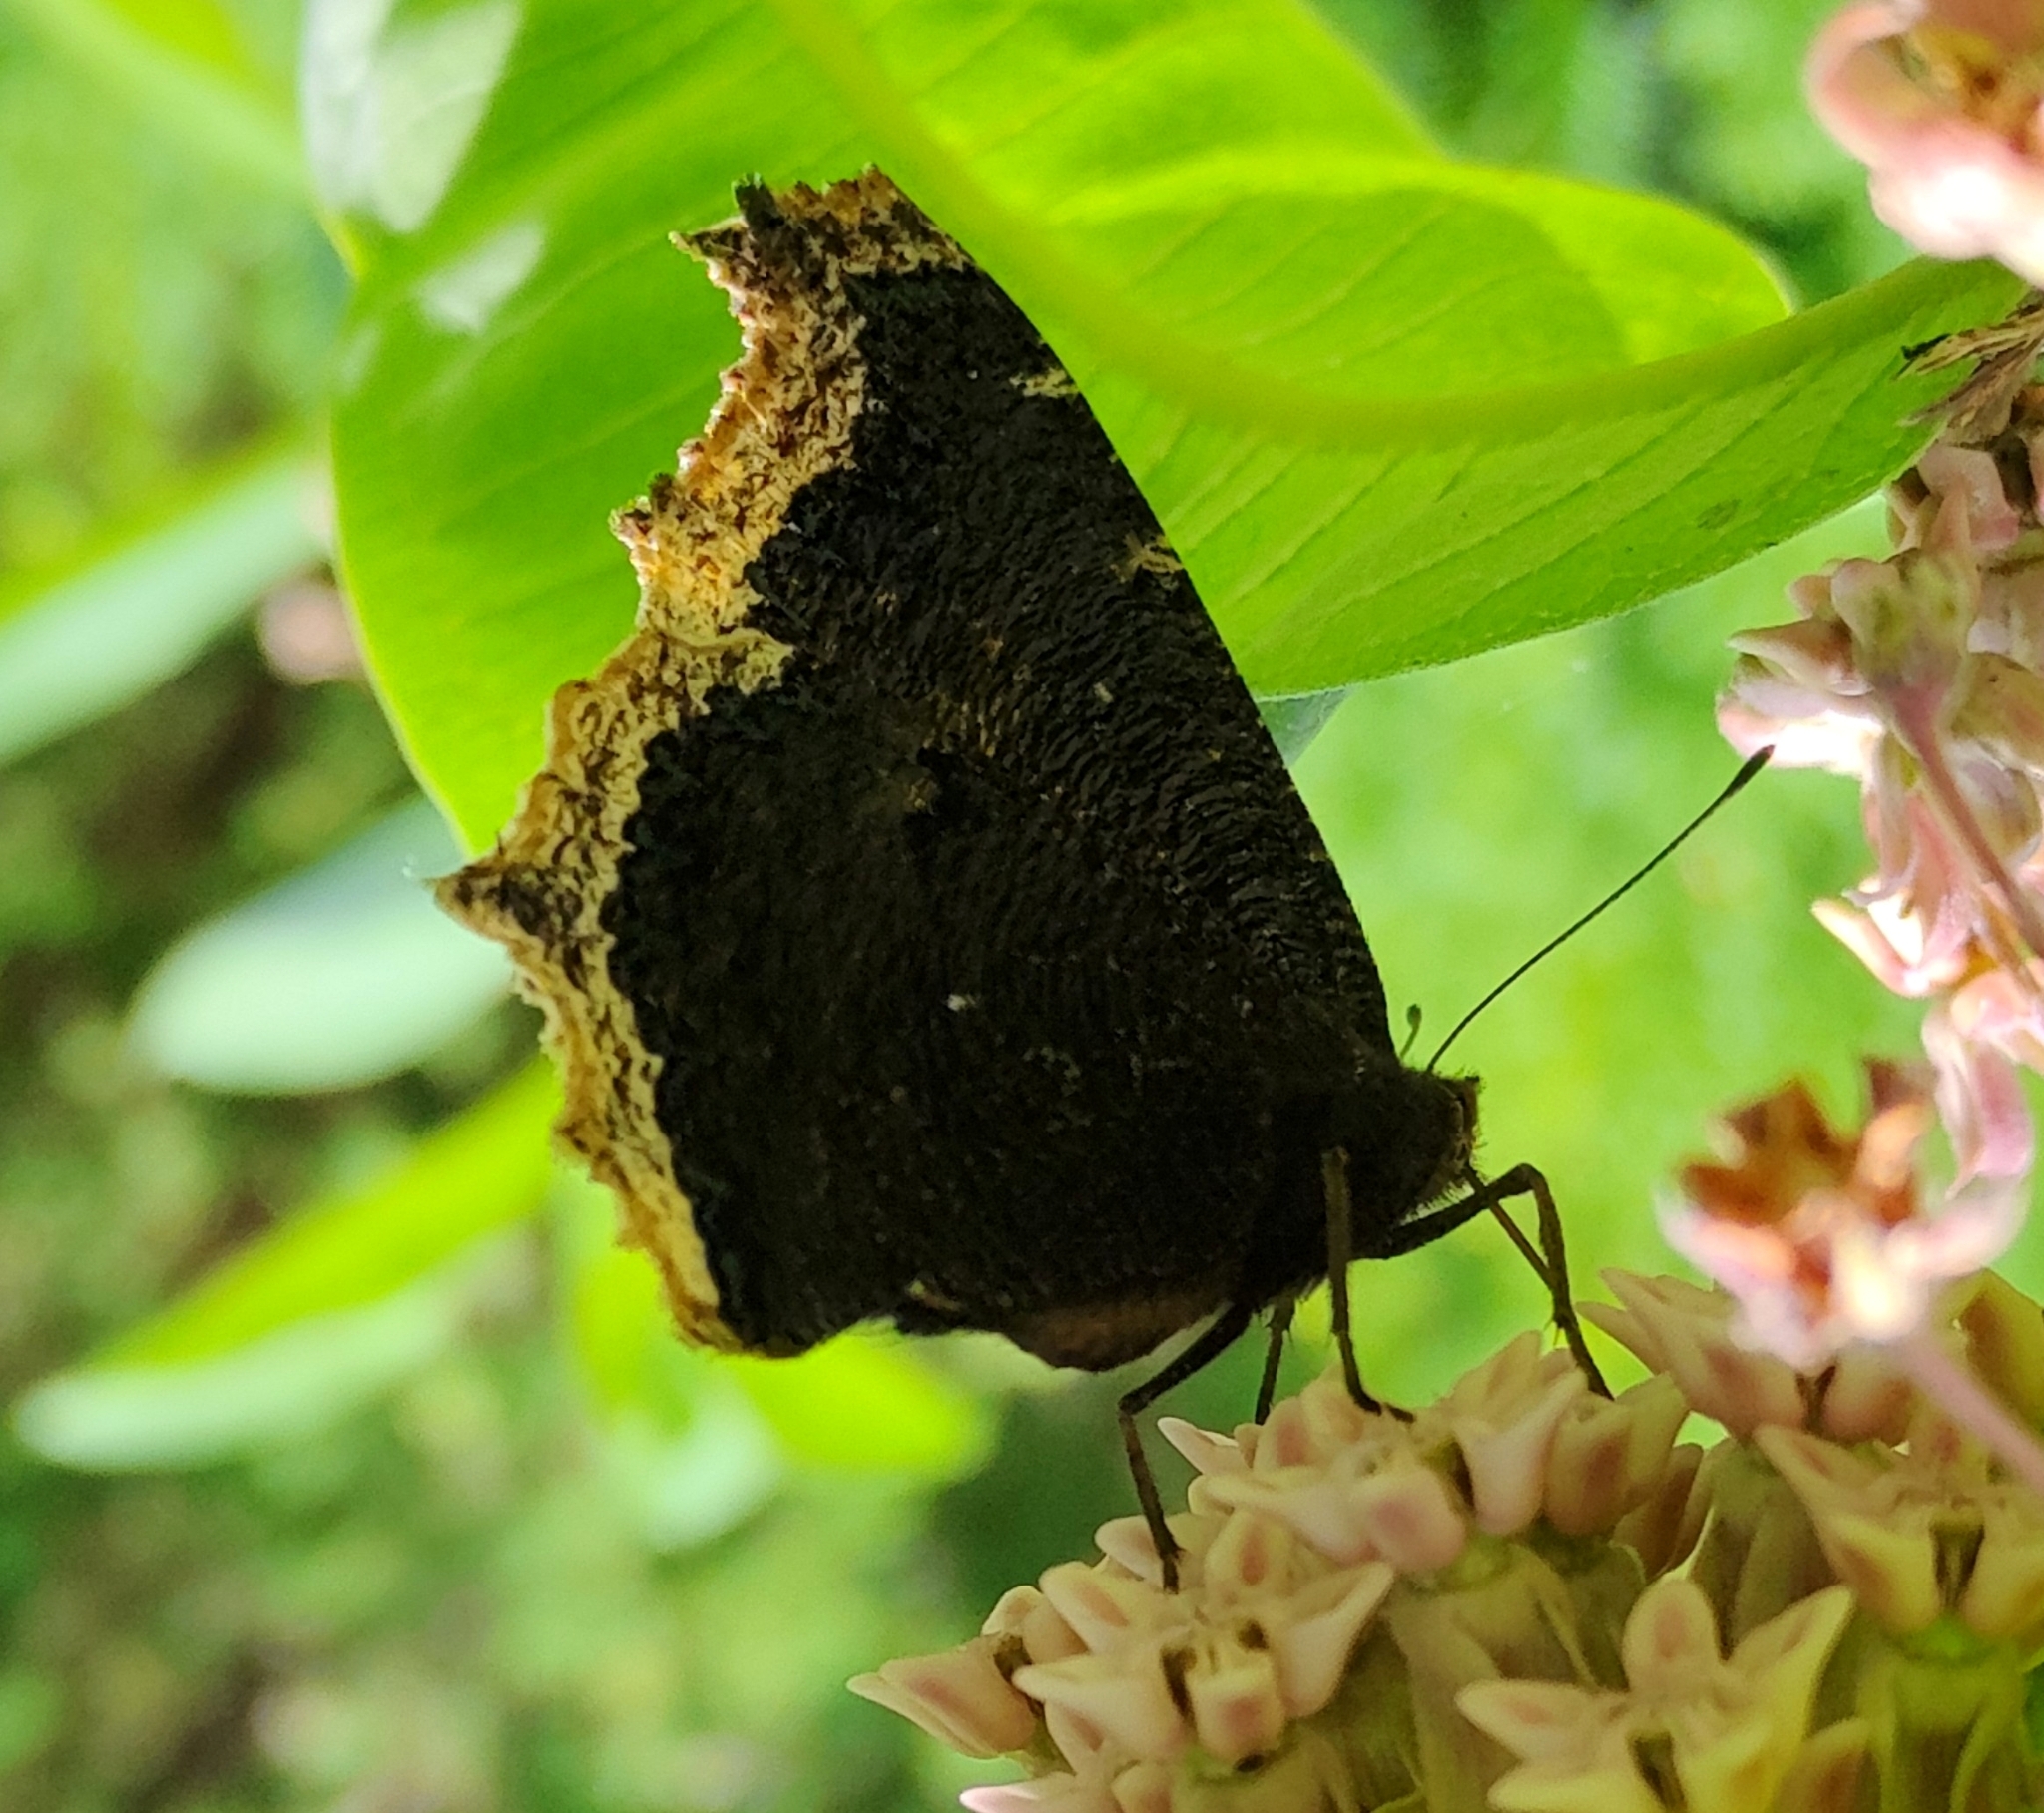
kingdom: Animalia
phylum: Arthropoda
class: Insecta
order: Lepidoptera
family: Nymphalidae
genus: Nymphalis
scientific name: Nymphalis antiopa
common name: Camberwell beauty
